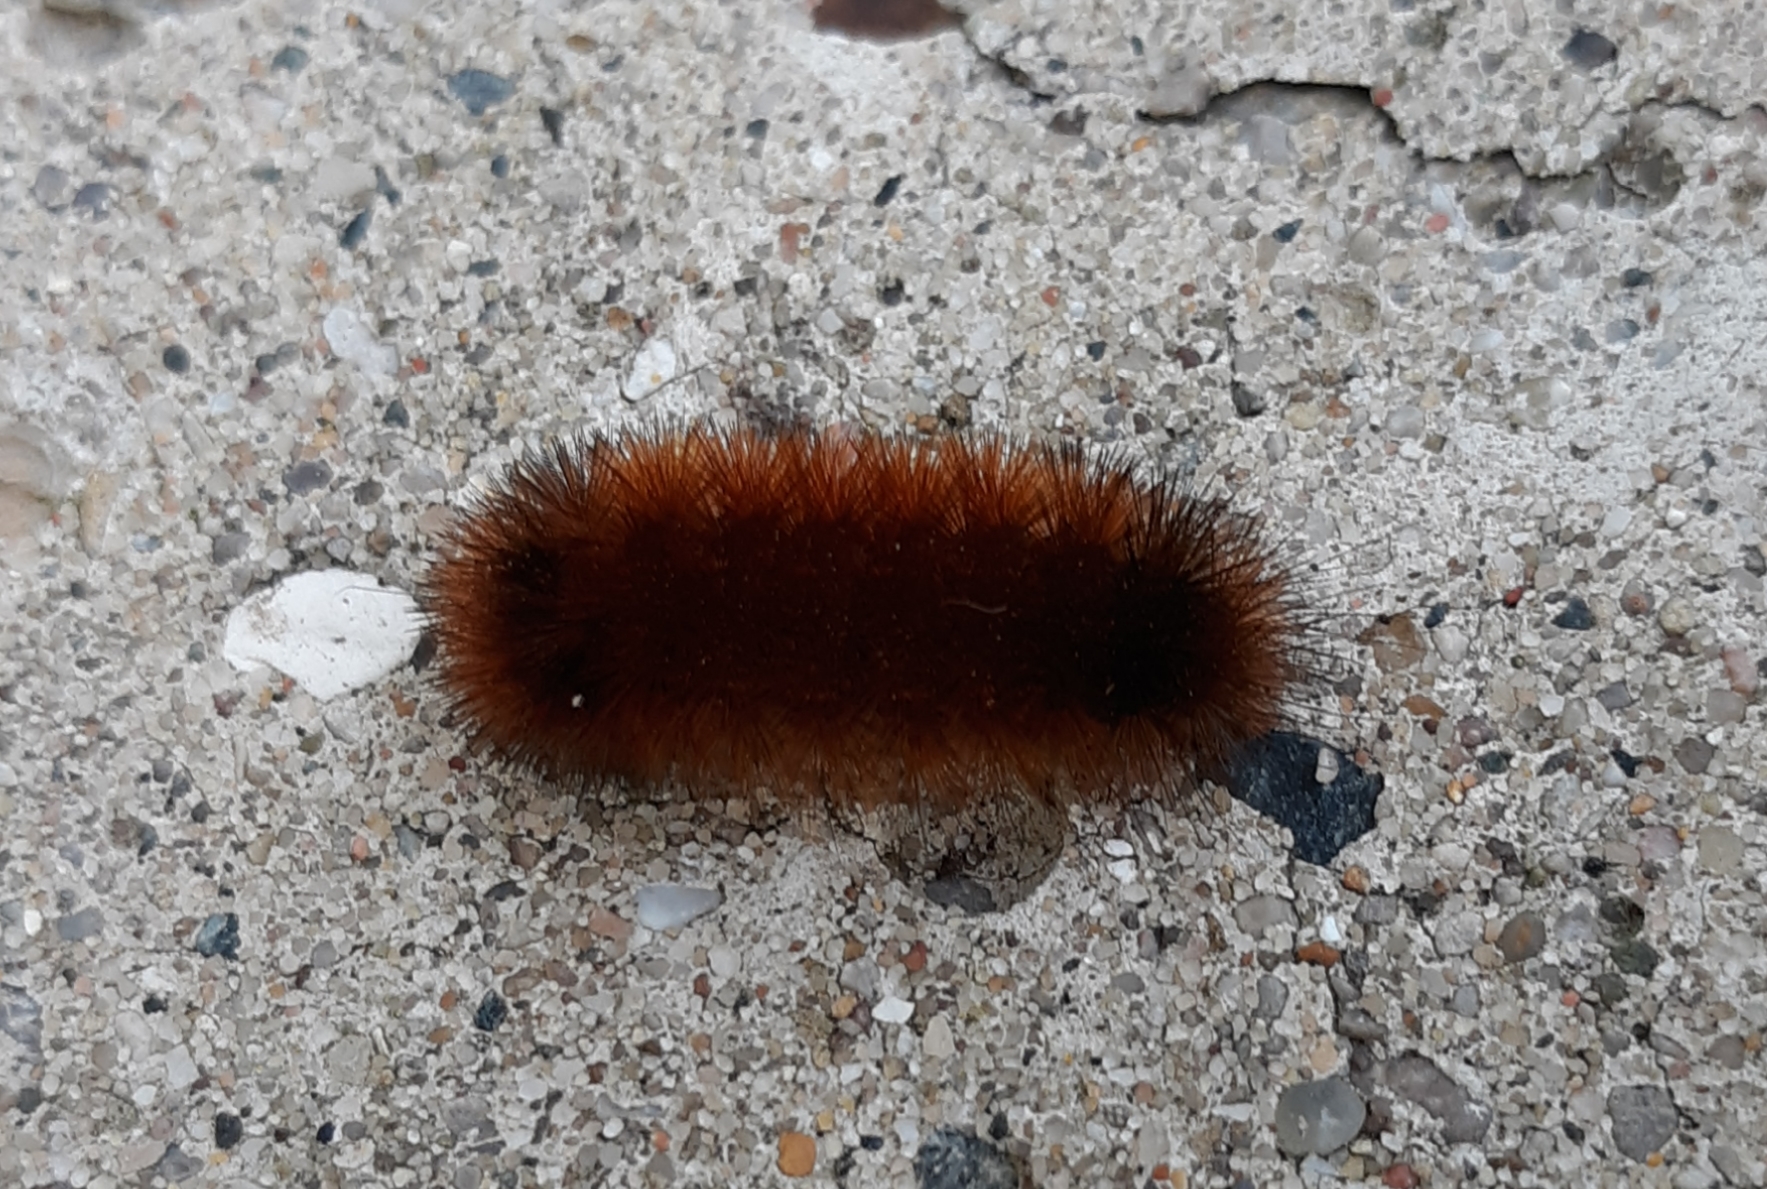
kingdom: Animalia
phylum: Arthropoda
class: Insecta
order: Lepidoptera
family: Erebidae
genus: Pyrrharctia
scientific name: Pyrrharctia isabella
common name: Isabella tiger moth
